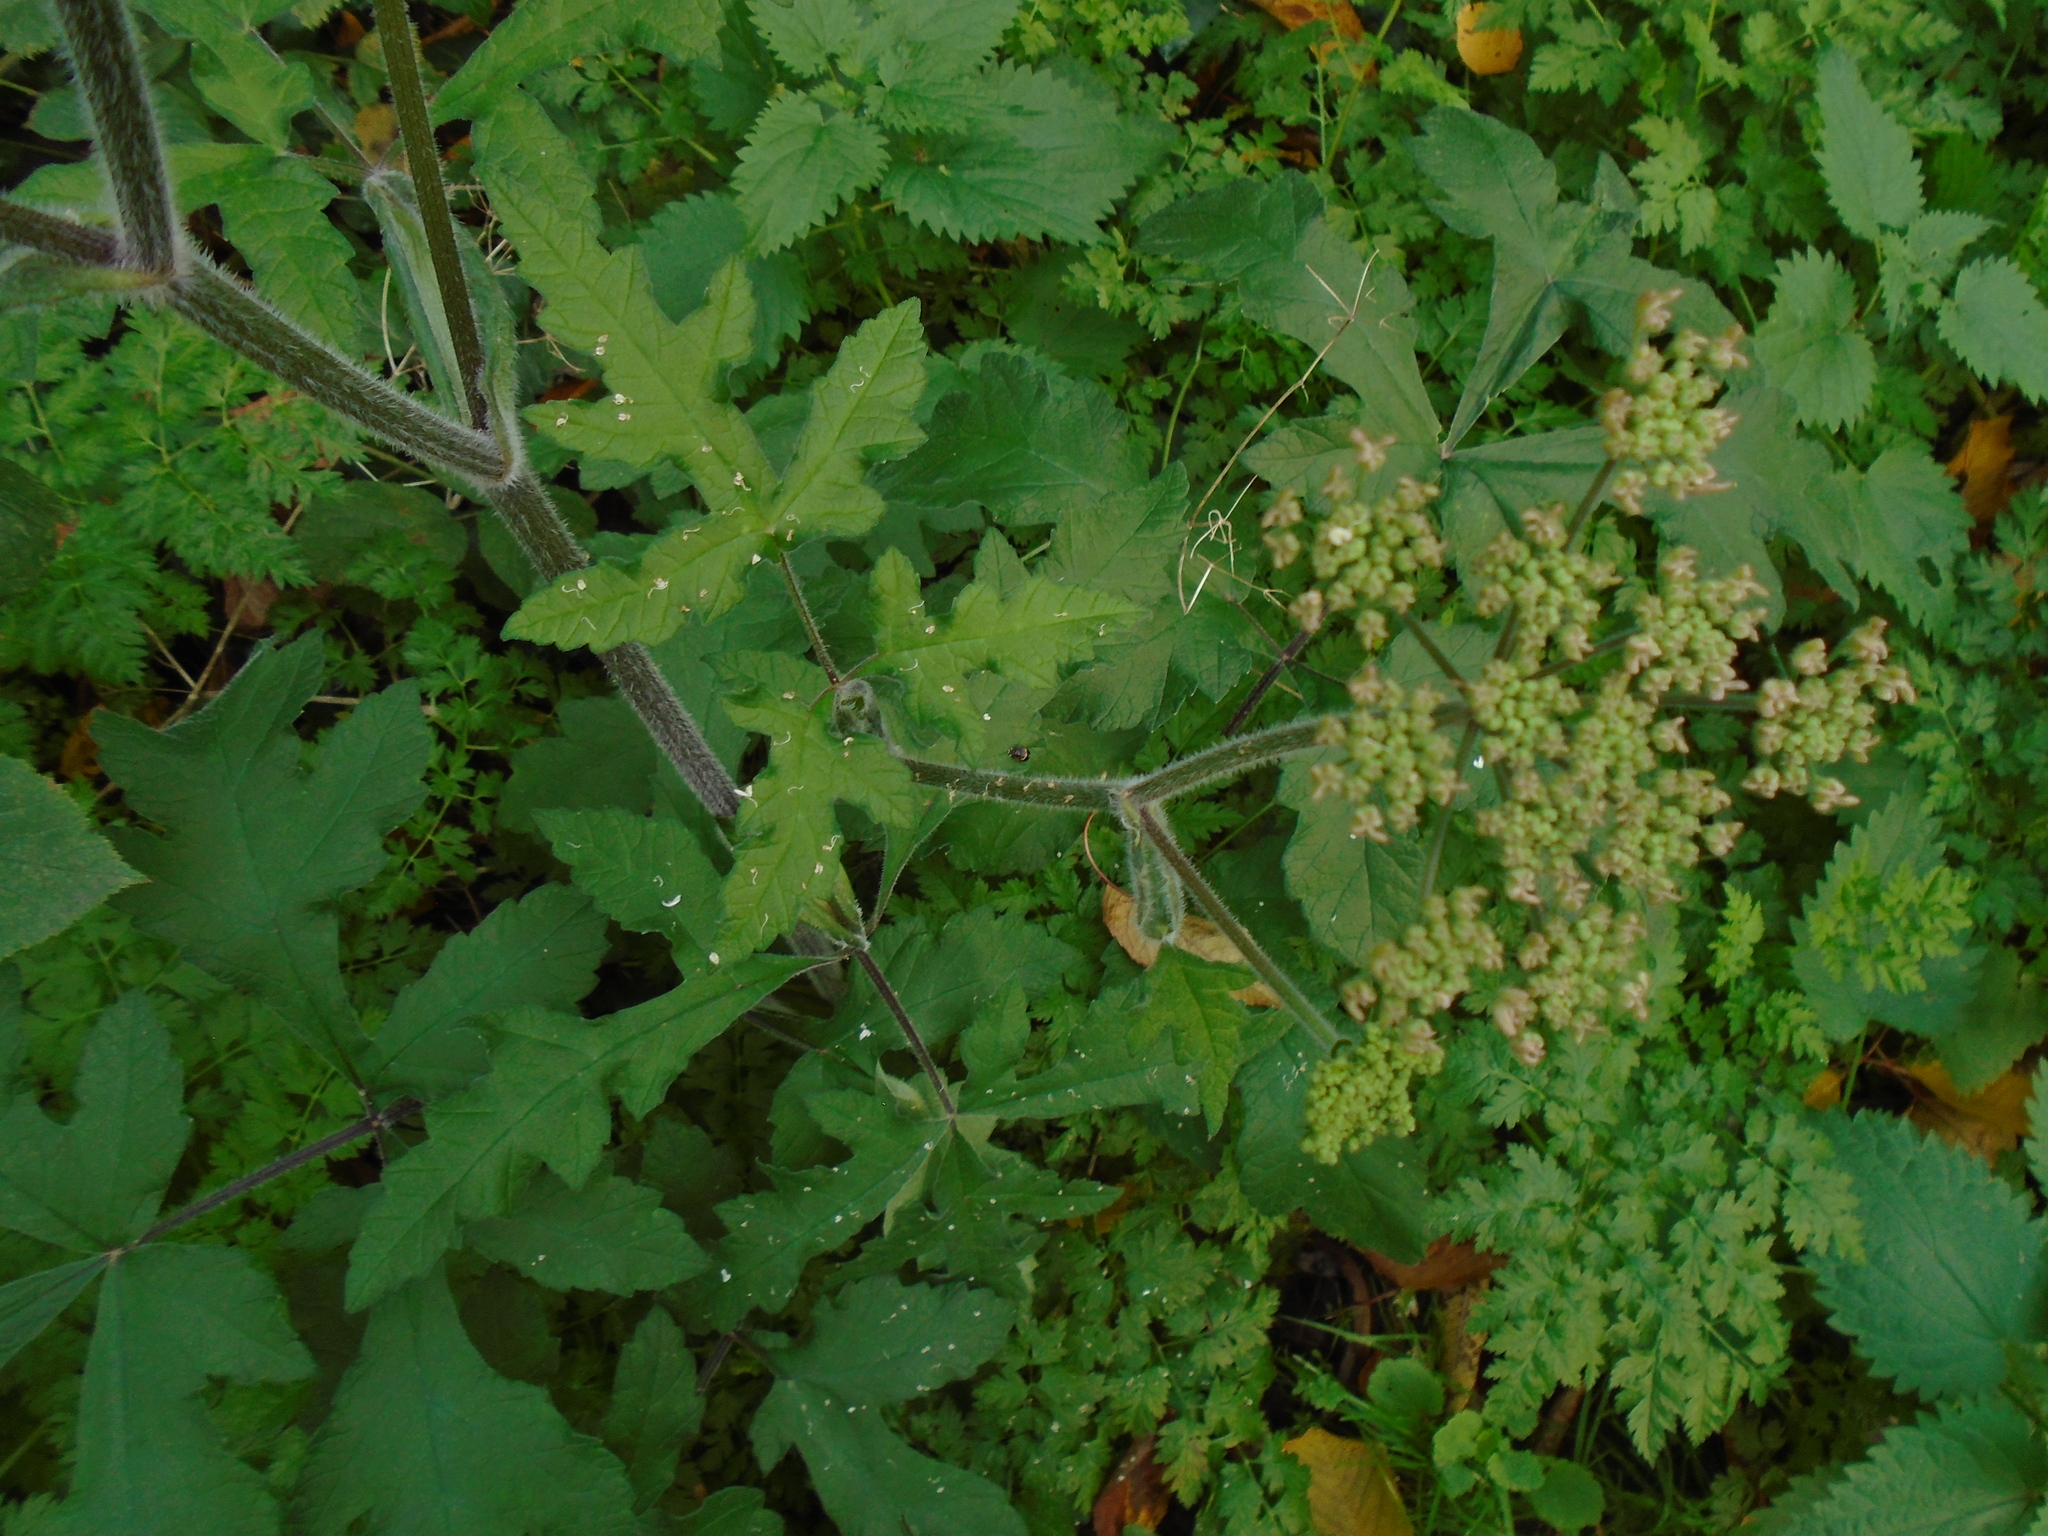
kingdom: Plantae
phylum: Tracheophyta
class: Magnoliopsida
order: Apiales
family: Apiaceae
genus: Heracleum
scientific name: Heracleum sphondylium
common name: Hogweed
